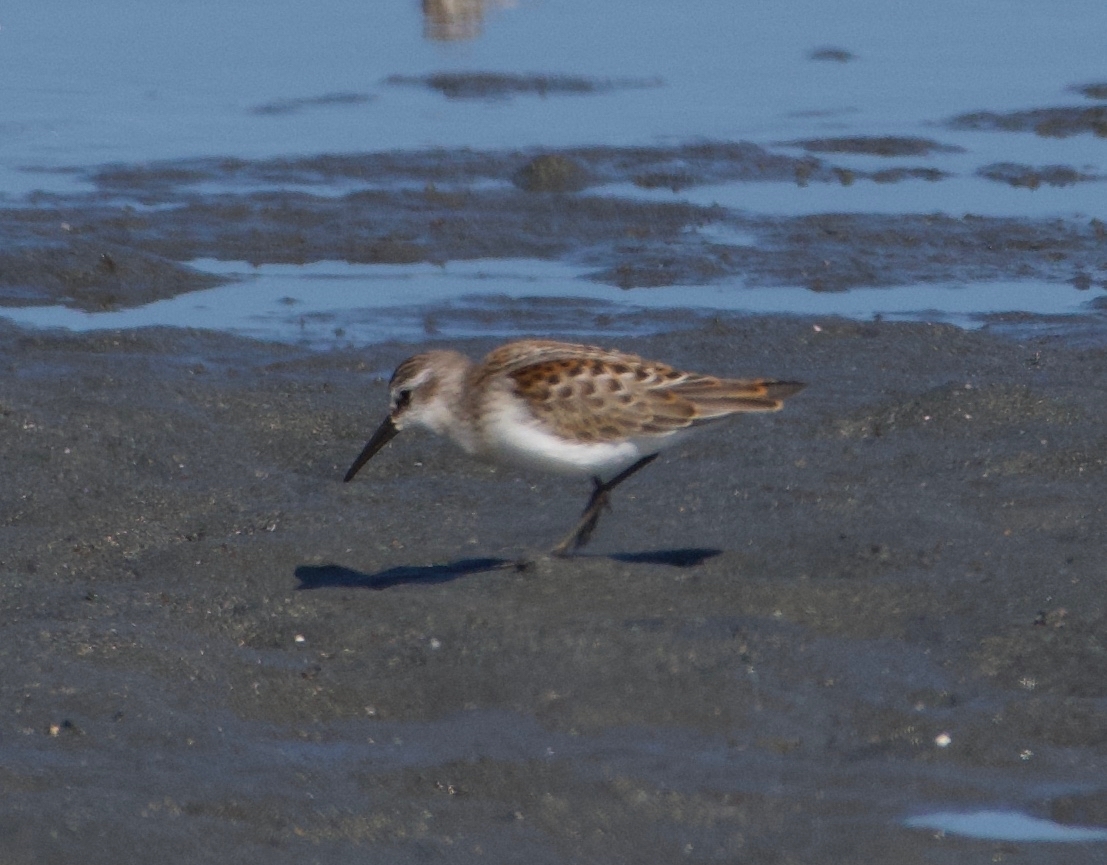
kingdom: Animalia
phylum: Chordata
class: Aves
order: Charadriiformes
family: Scolopacidae
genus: Calidris
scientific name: Calidris mauri
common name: Western sandpiper
